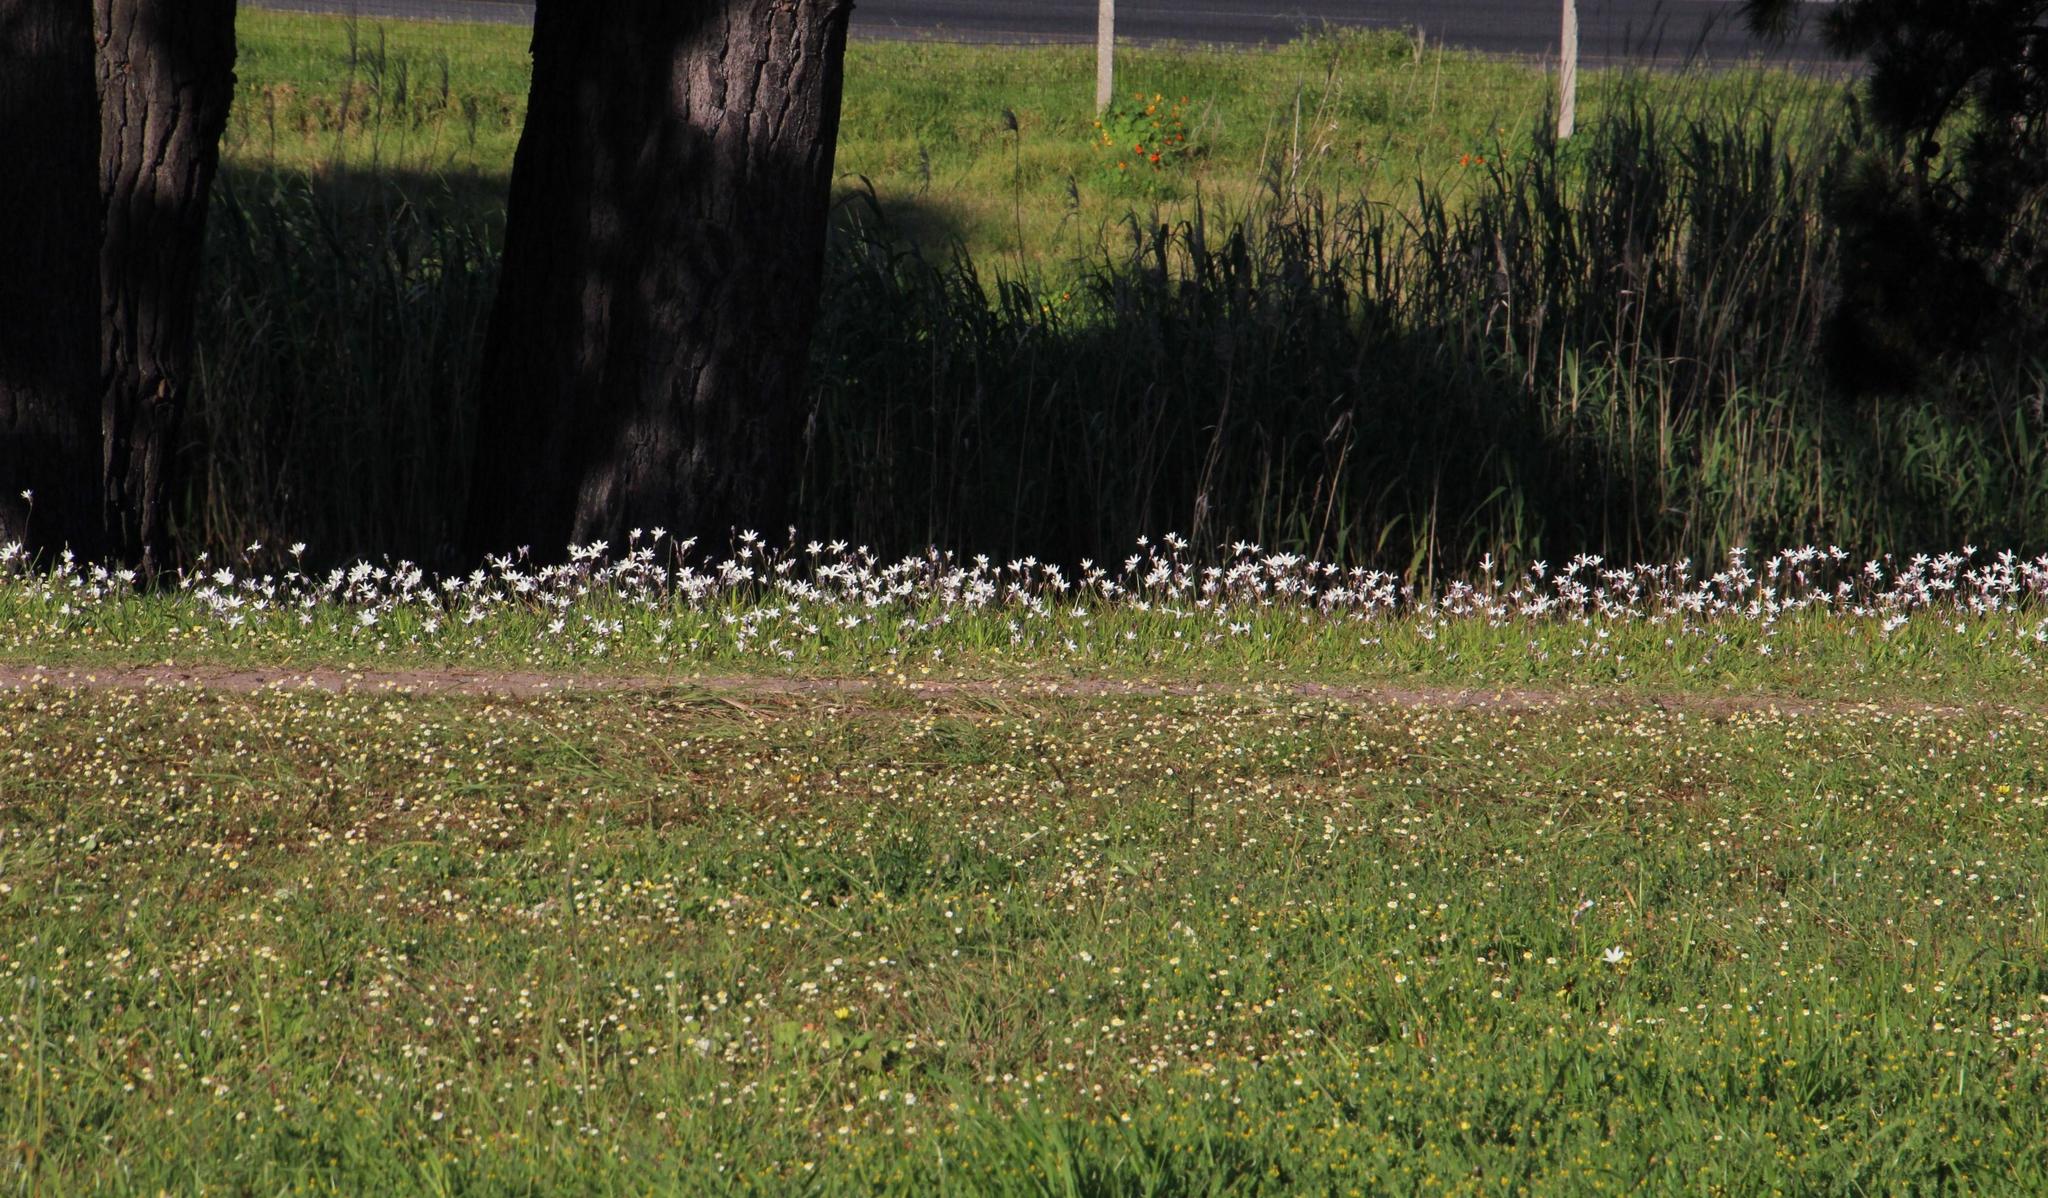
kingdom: Plantae
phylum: Tracheophyta
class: Liliopsida
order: Asparagales
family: Iridaceae
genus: Sparaxis
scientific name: Sparaxis bulbifera
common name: Harlequin-flower
